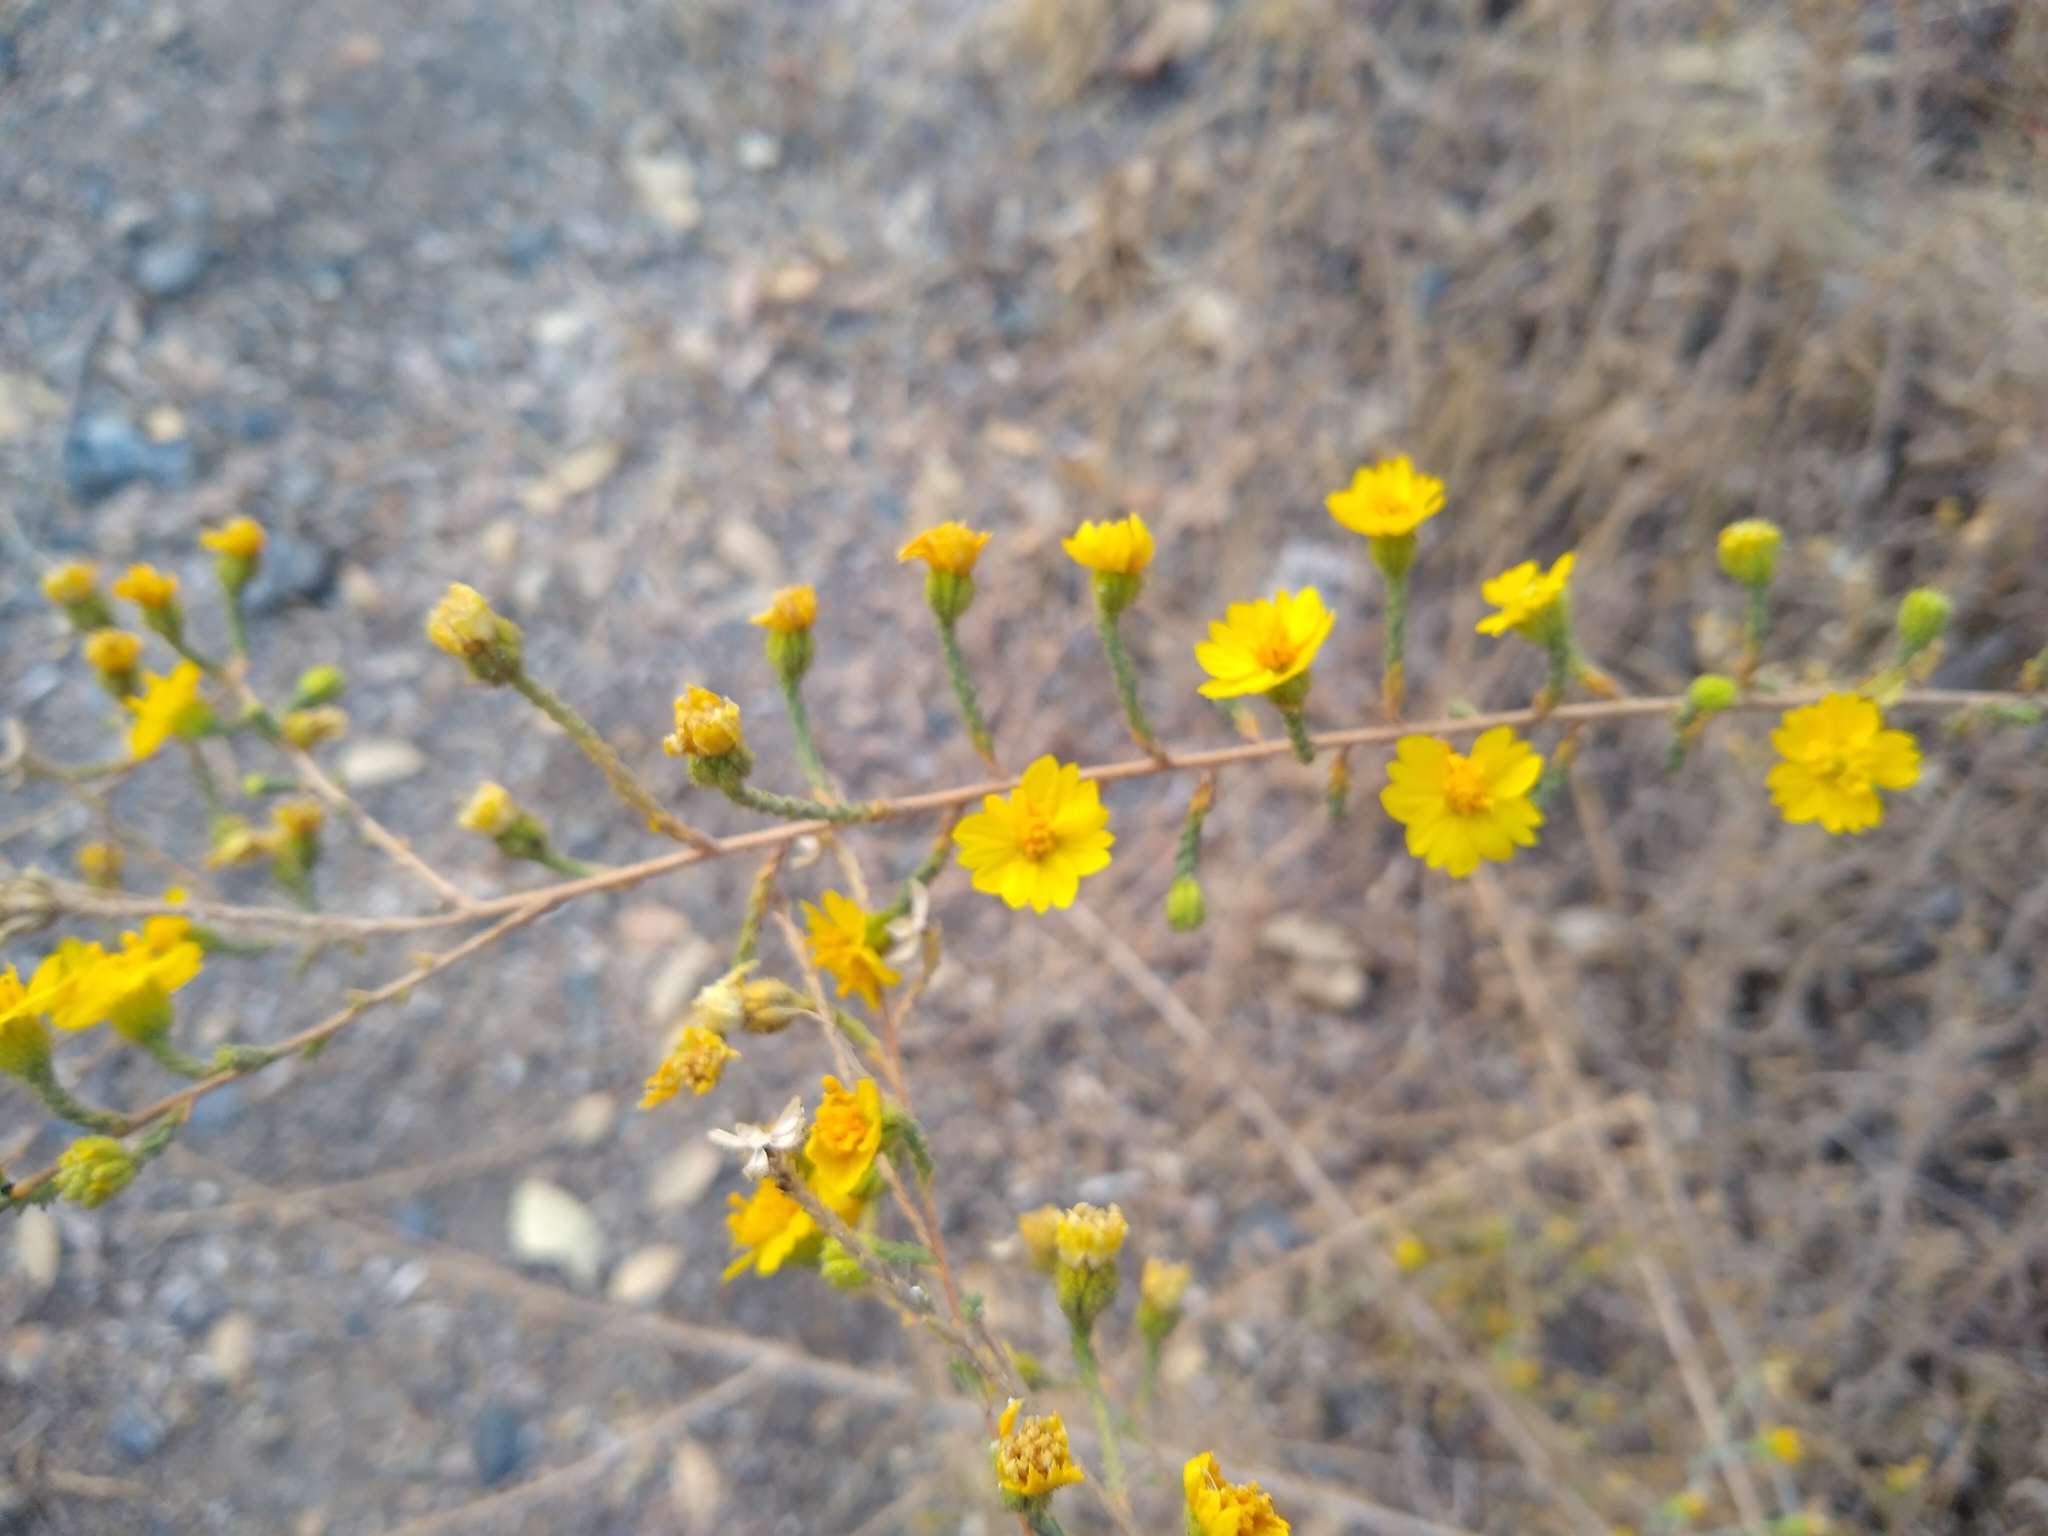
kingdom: Plantae
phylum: Tracheophyta
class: Magnoliopsida
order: Asterales
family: Asteraceae
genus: Holocarpha
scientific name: Holocarpha heermannii
